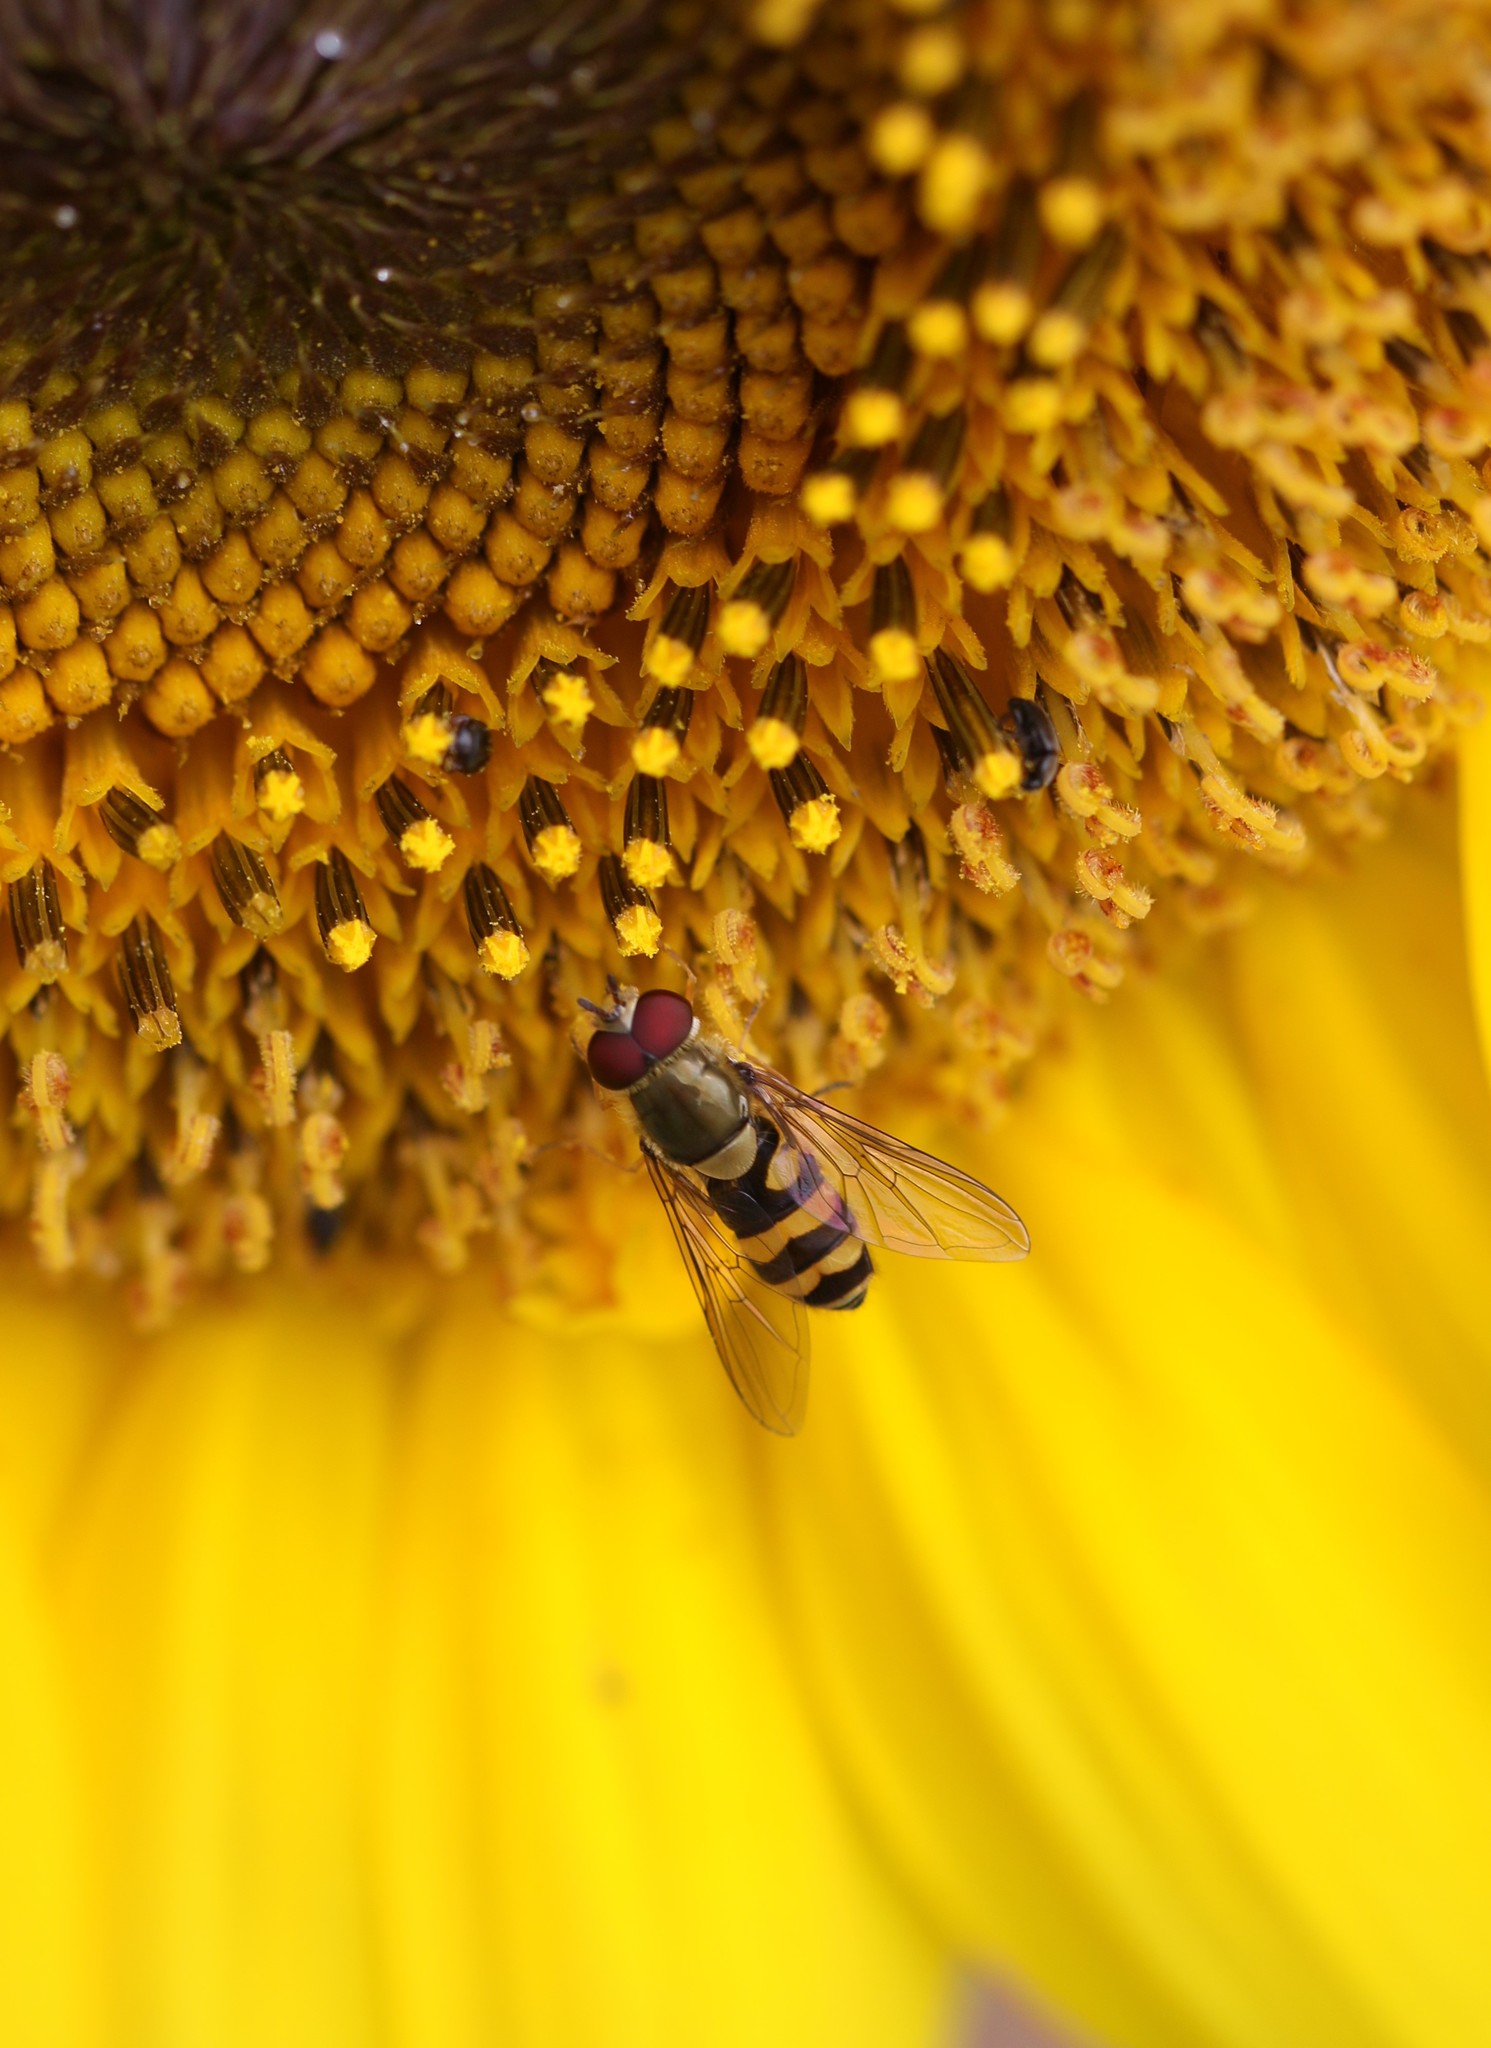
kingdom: Animalia
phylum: Arthropoda
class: Insecta
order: Diptera
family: Syrphidae
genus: Syrphus
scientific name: Syrphus
